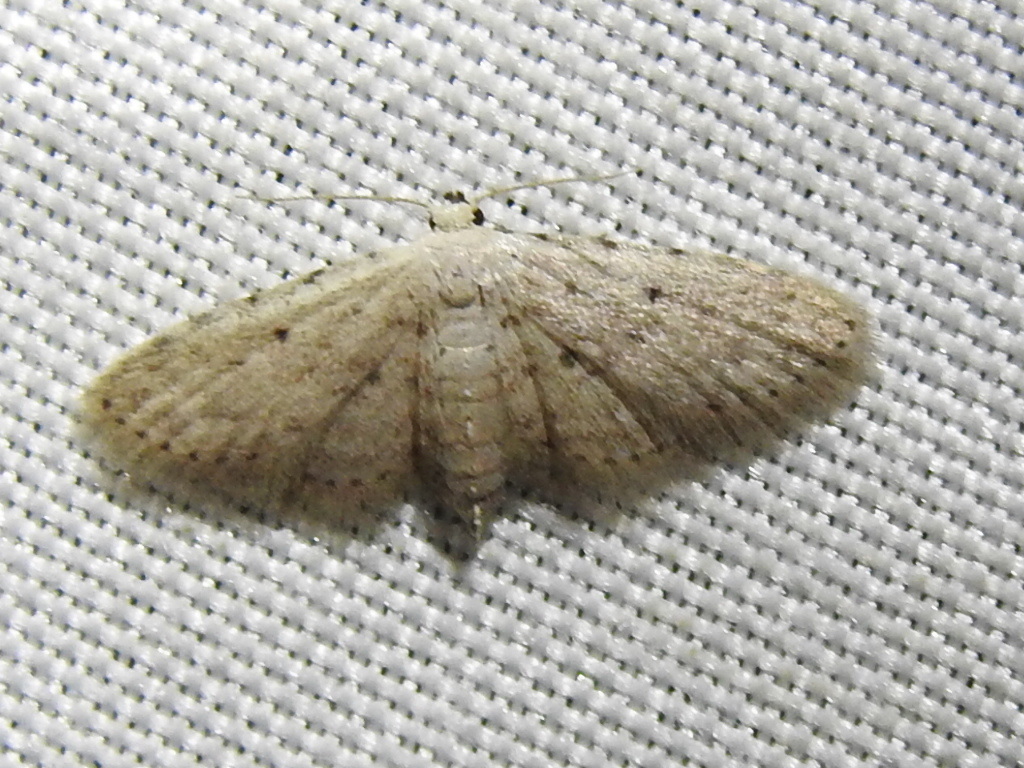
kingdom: Animalia
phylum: Arthropoda
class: Insecta
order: Lepidoptera
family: Geometridae
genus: Lobocleta
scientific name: Lobocleta ossularia
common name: Drab brown wave
